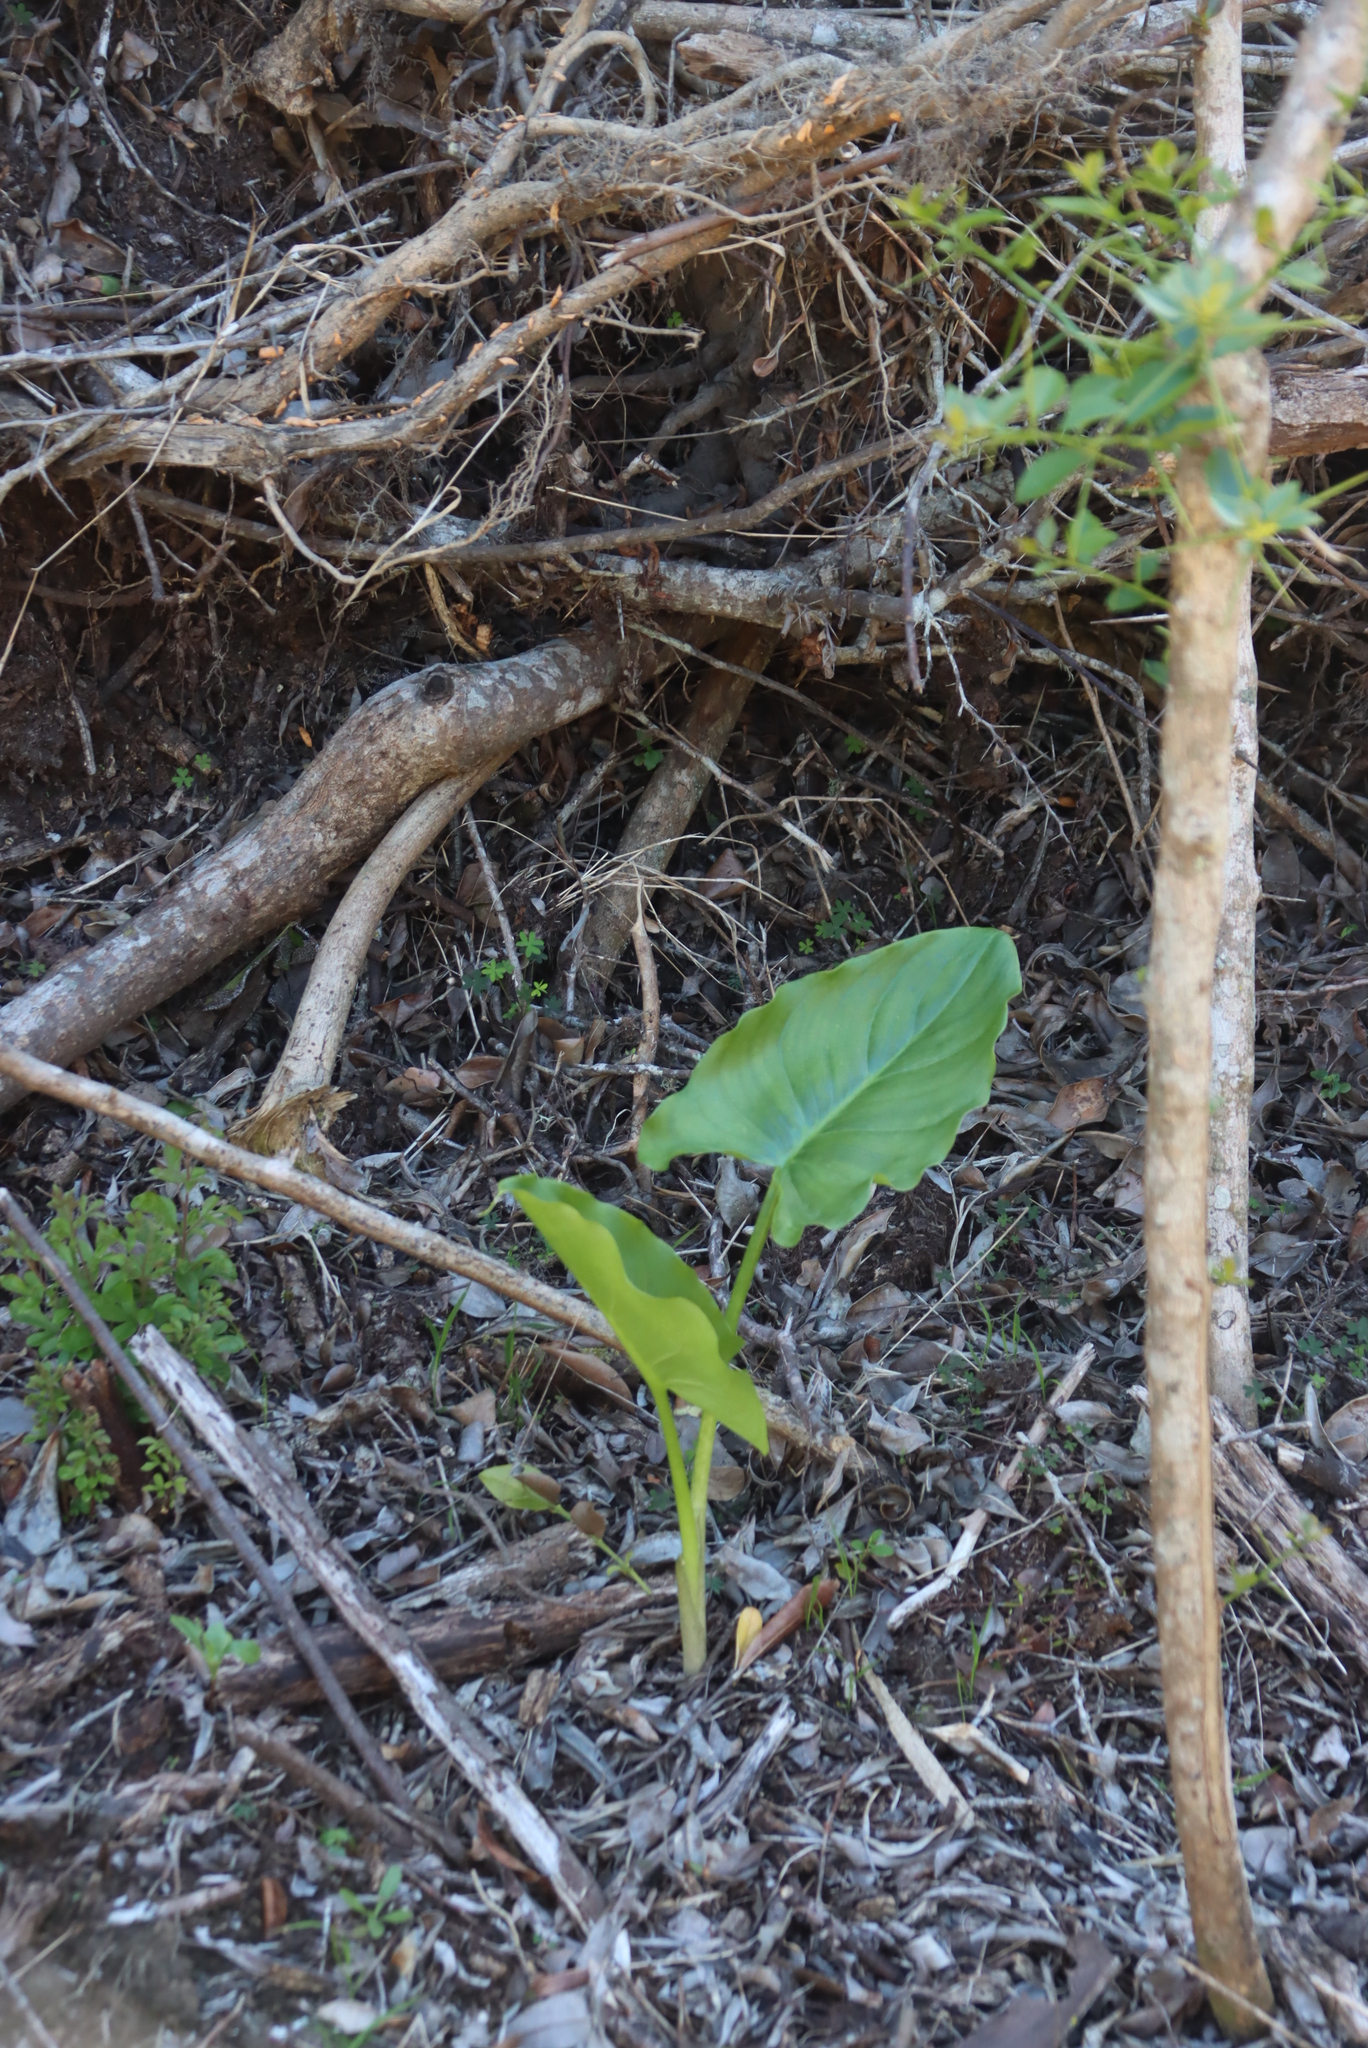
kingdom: Plantae
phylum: Tracheophyta
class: Liliopsida
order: Alismatales
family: Araceae
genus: Zantedeschia
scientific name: Zantedeschia aethiopica
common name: Altar-lily
